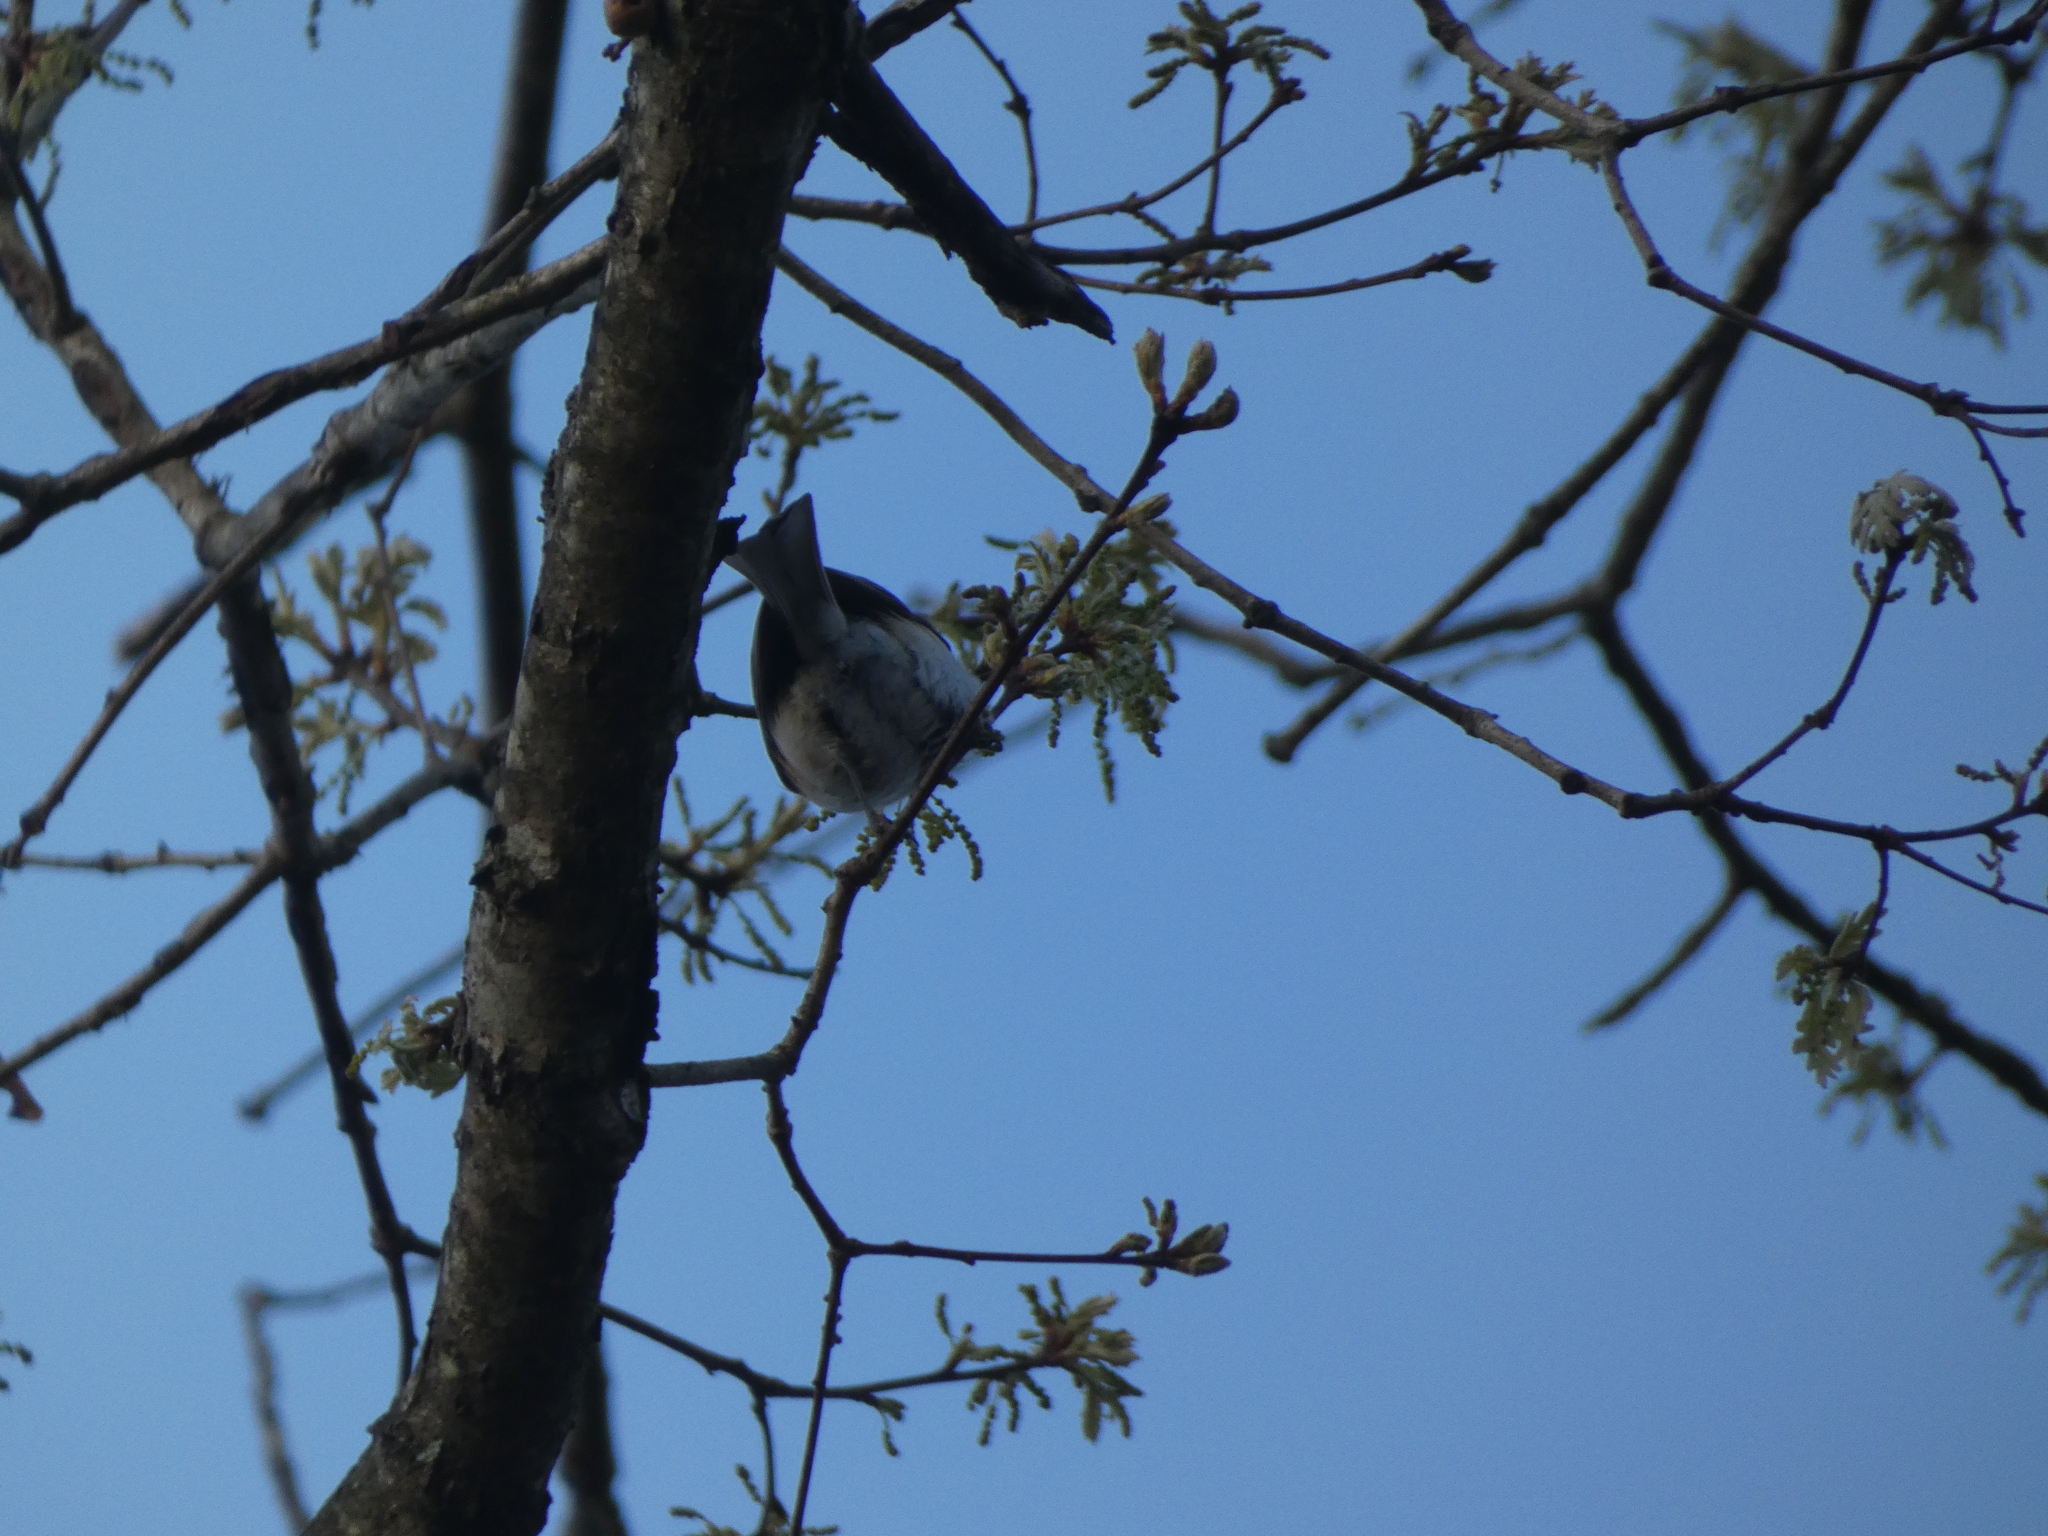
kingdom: Animalia
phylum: Chordata
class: Aves
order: Passeriformes
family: Paridae
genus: Baeolophus
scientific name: Baeolophus bicolor
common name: Tufted titmouse
